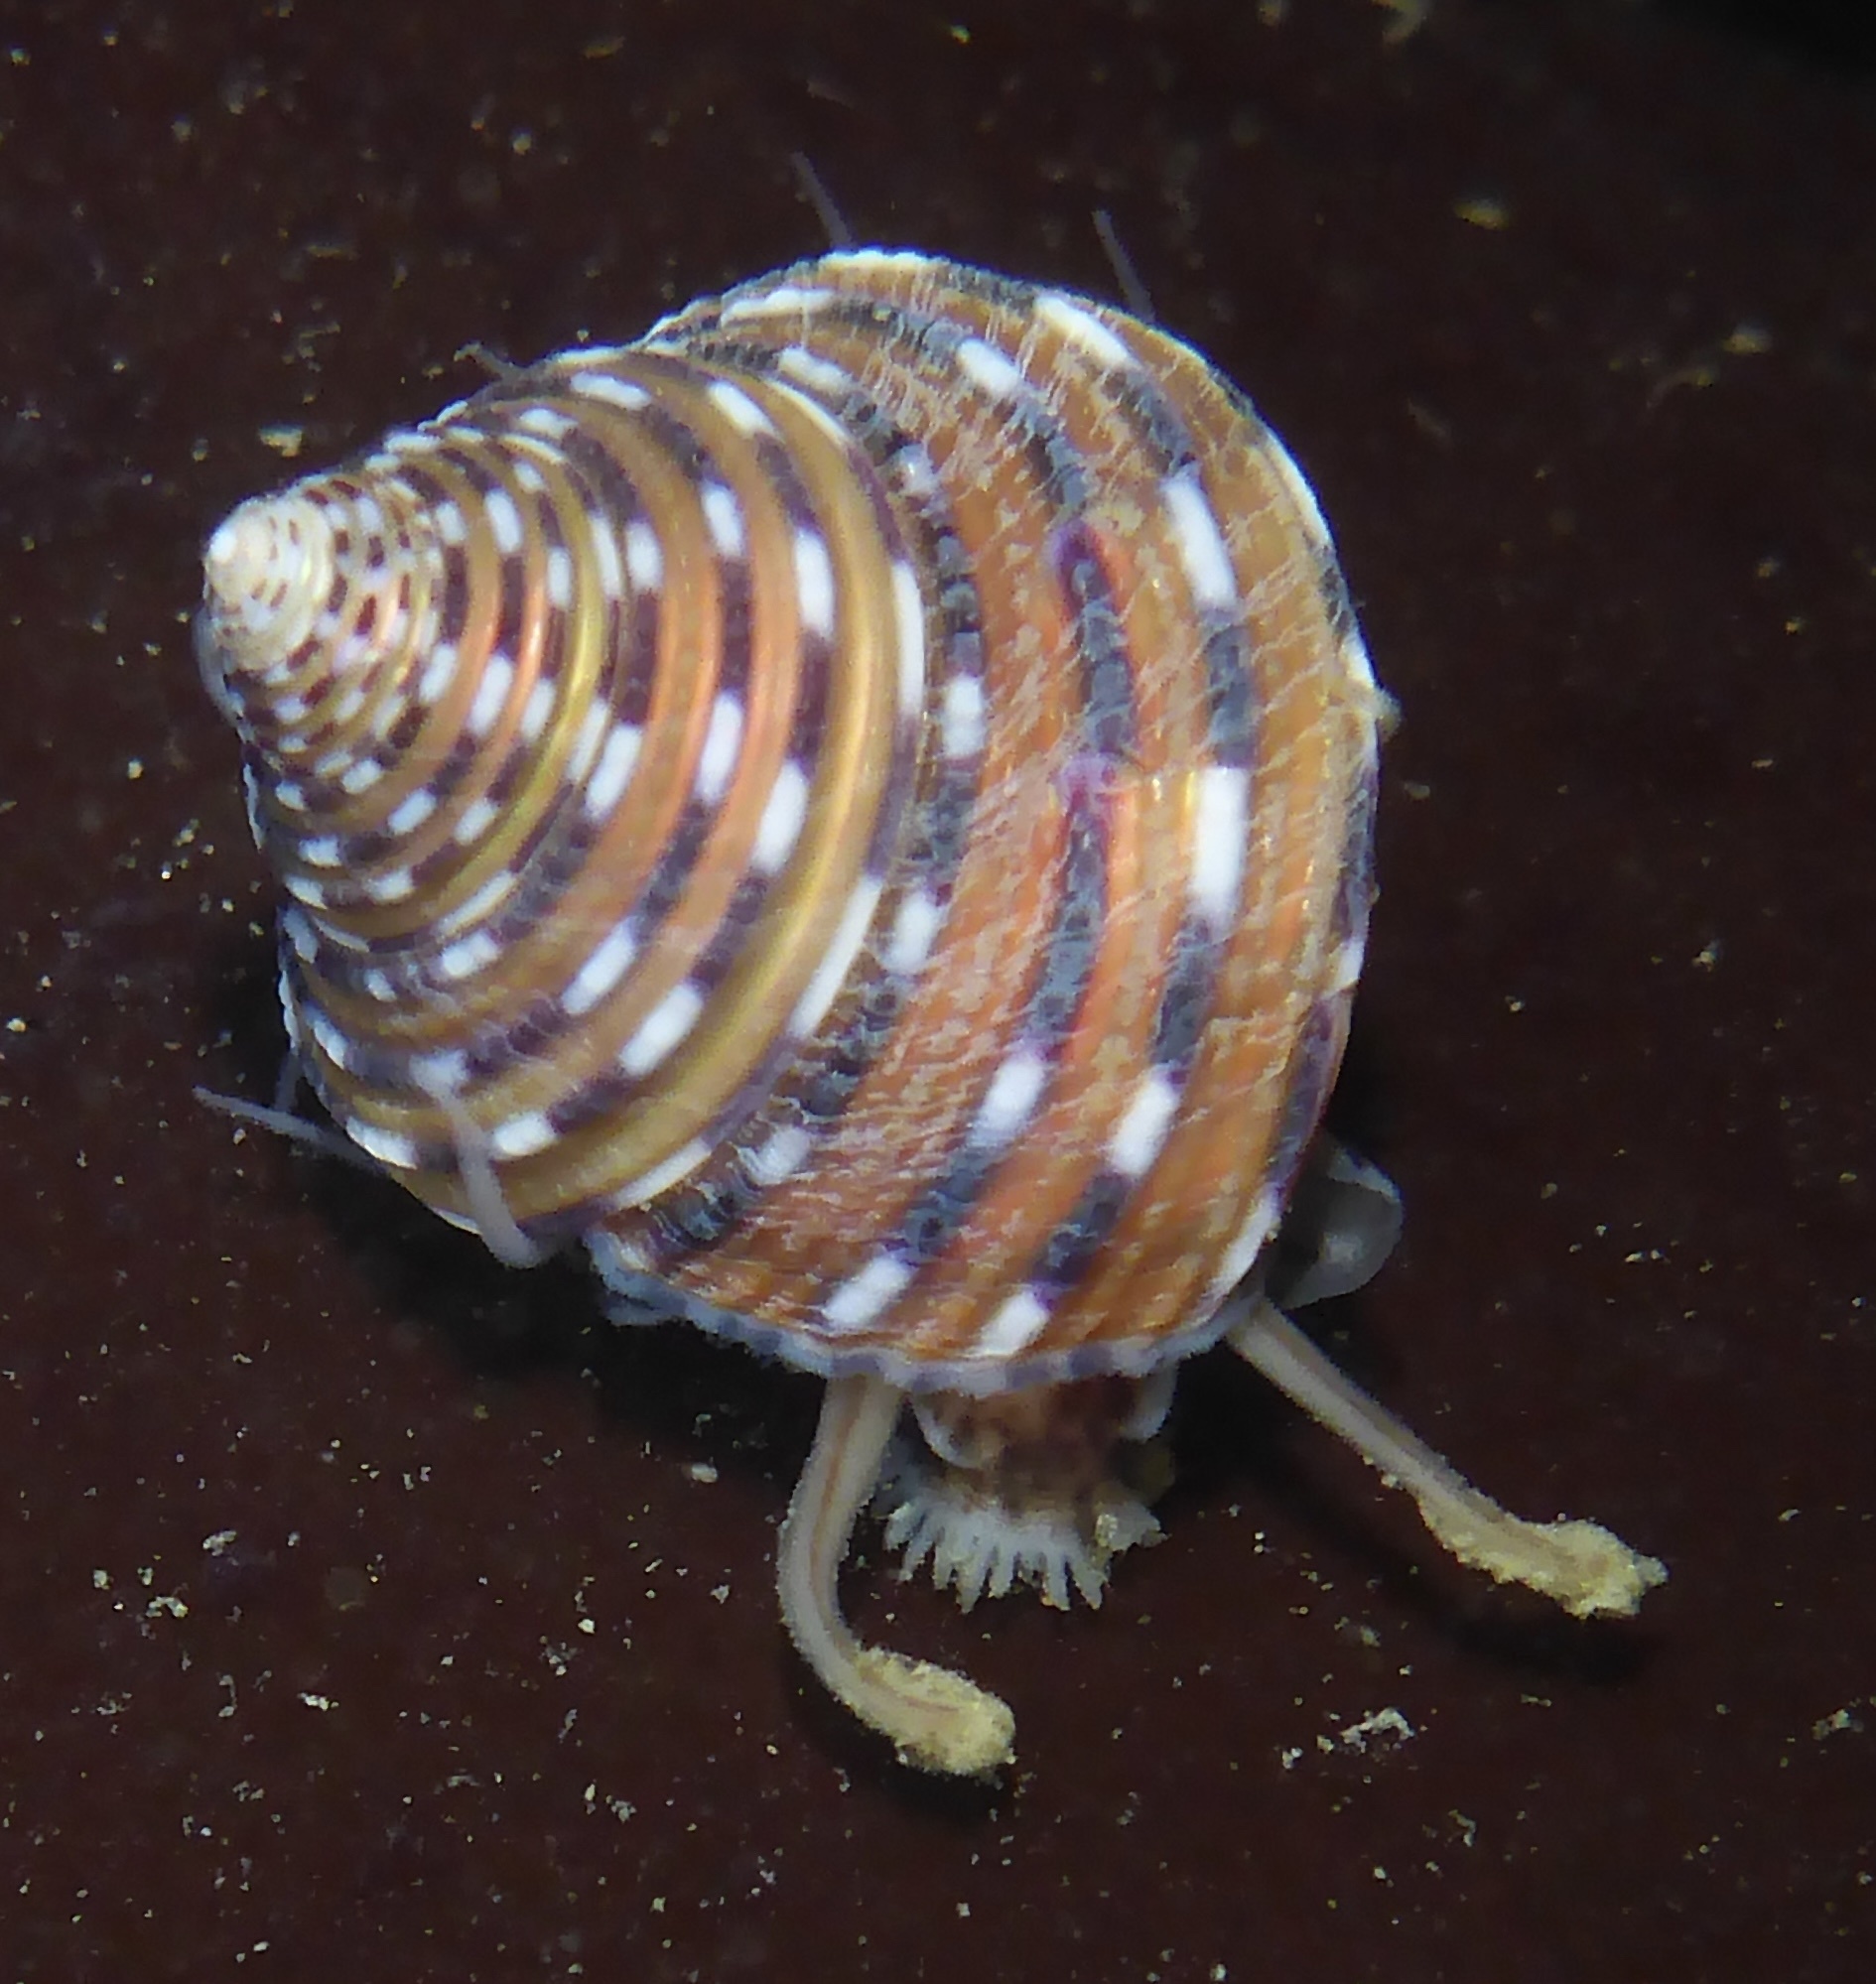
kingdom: Animalia
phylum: Mollusca
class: Gastropoda
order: Trochida
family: Calliostomatidae
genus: Calliostoma
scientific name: Calliostoma tricolor
